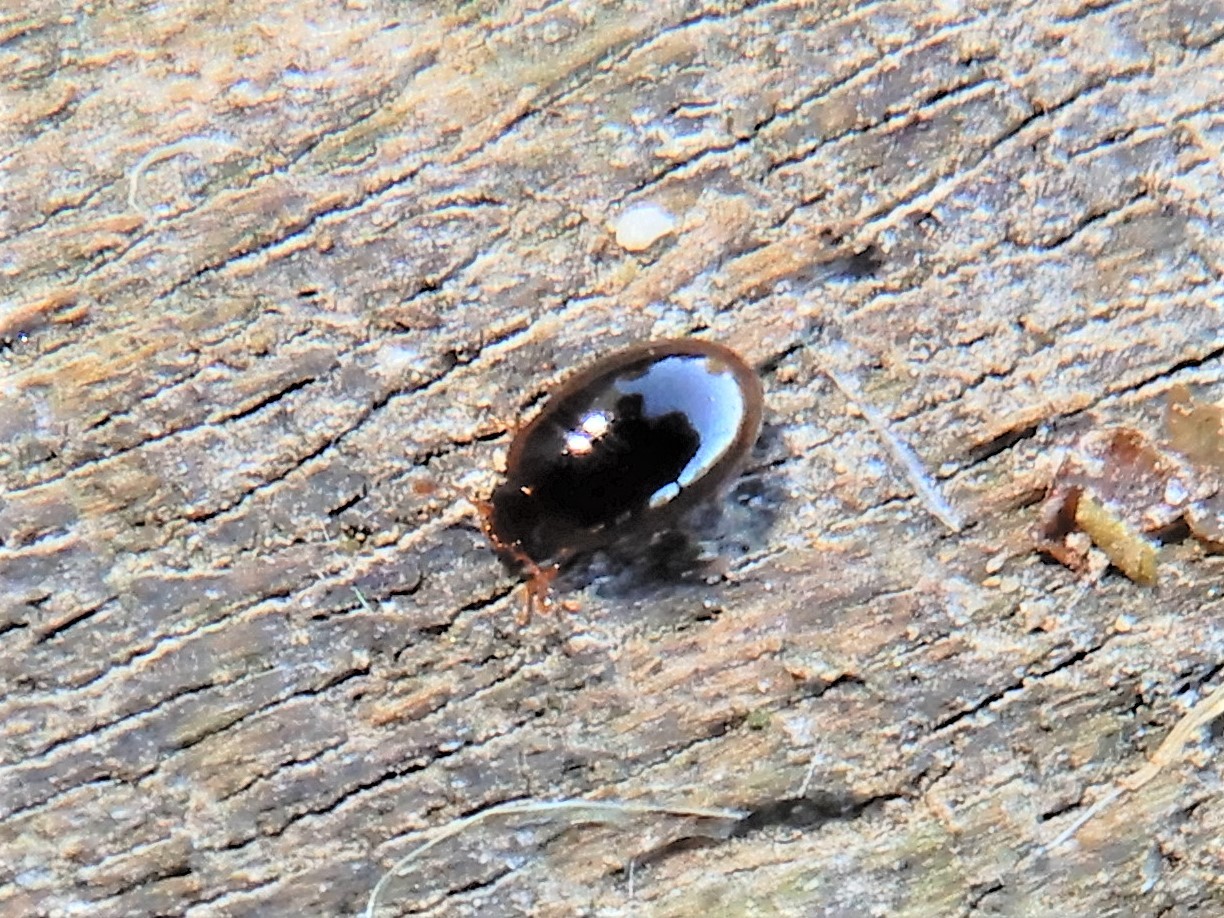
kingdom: Animalia
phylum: Arthropoda
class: Insecta
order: Coleoptera
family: Cerylonidae
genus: Hypodacnella
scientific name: Hypodacnella
